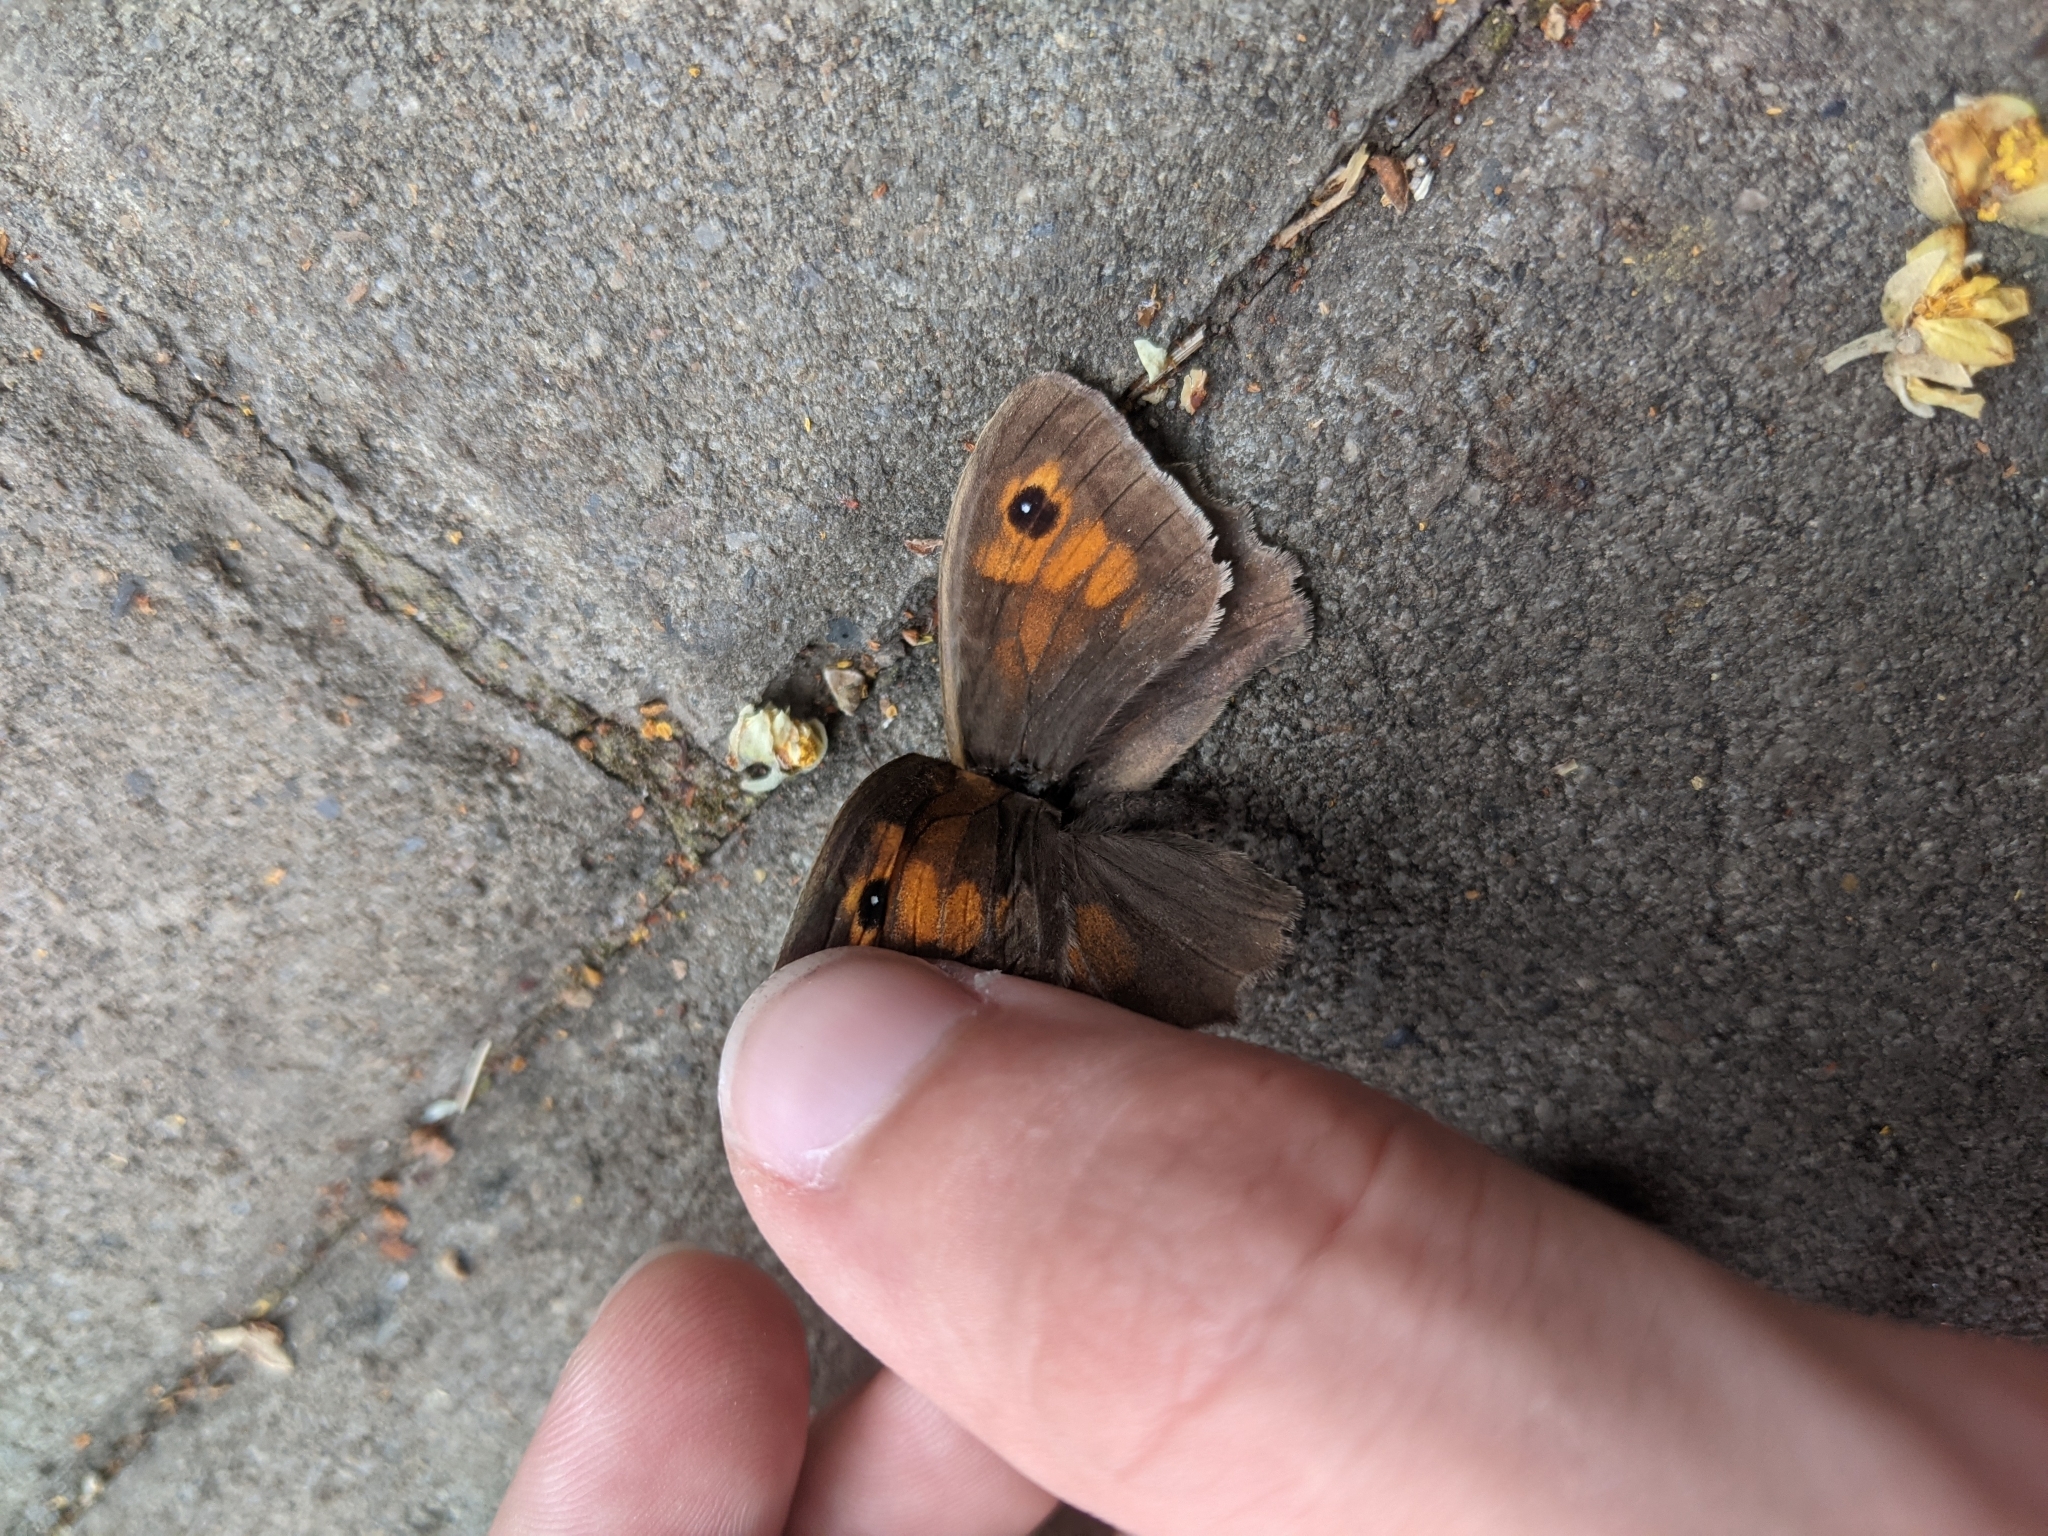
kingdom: Animalia
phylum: Arthropoda
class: Insecta
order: Lepidoptera
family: Nymphalidae
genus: Maniola
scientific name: Maniola jurtina
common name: Meadow brown
